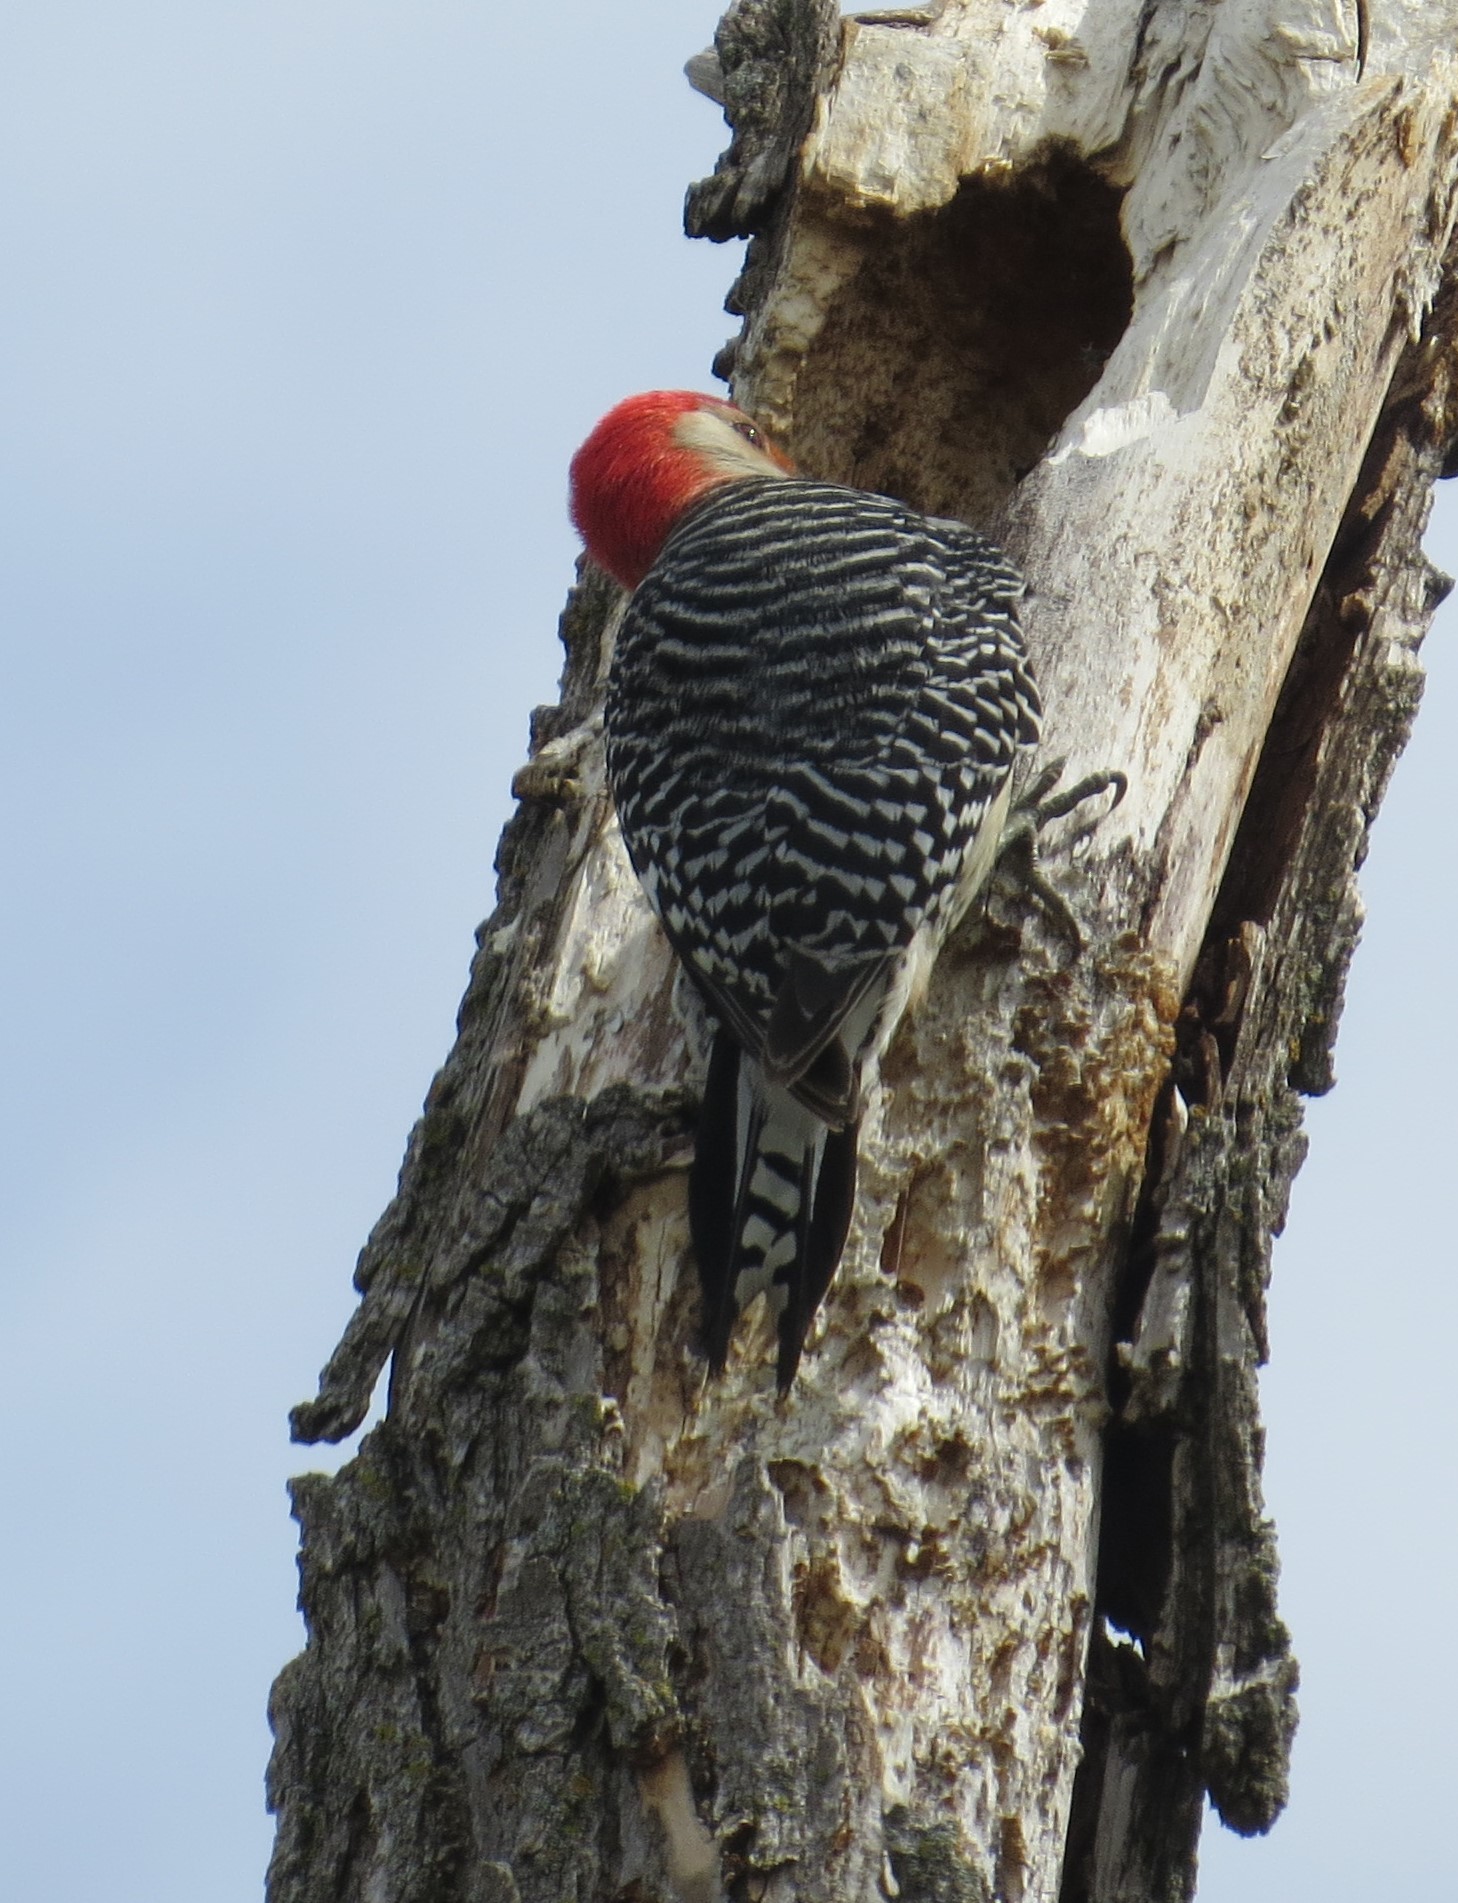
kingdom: Animalia
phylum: Chordata
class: Aves
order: Piciformes
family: Picidae
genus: Melanerpes
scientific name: Melanerpes carolinus
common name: Red-bellied woodpecker
